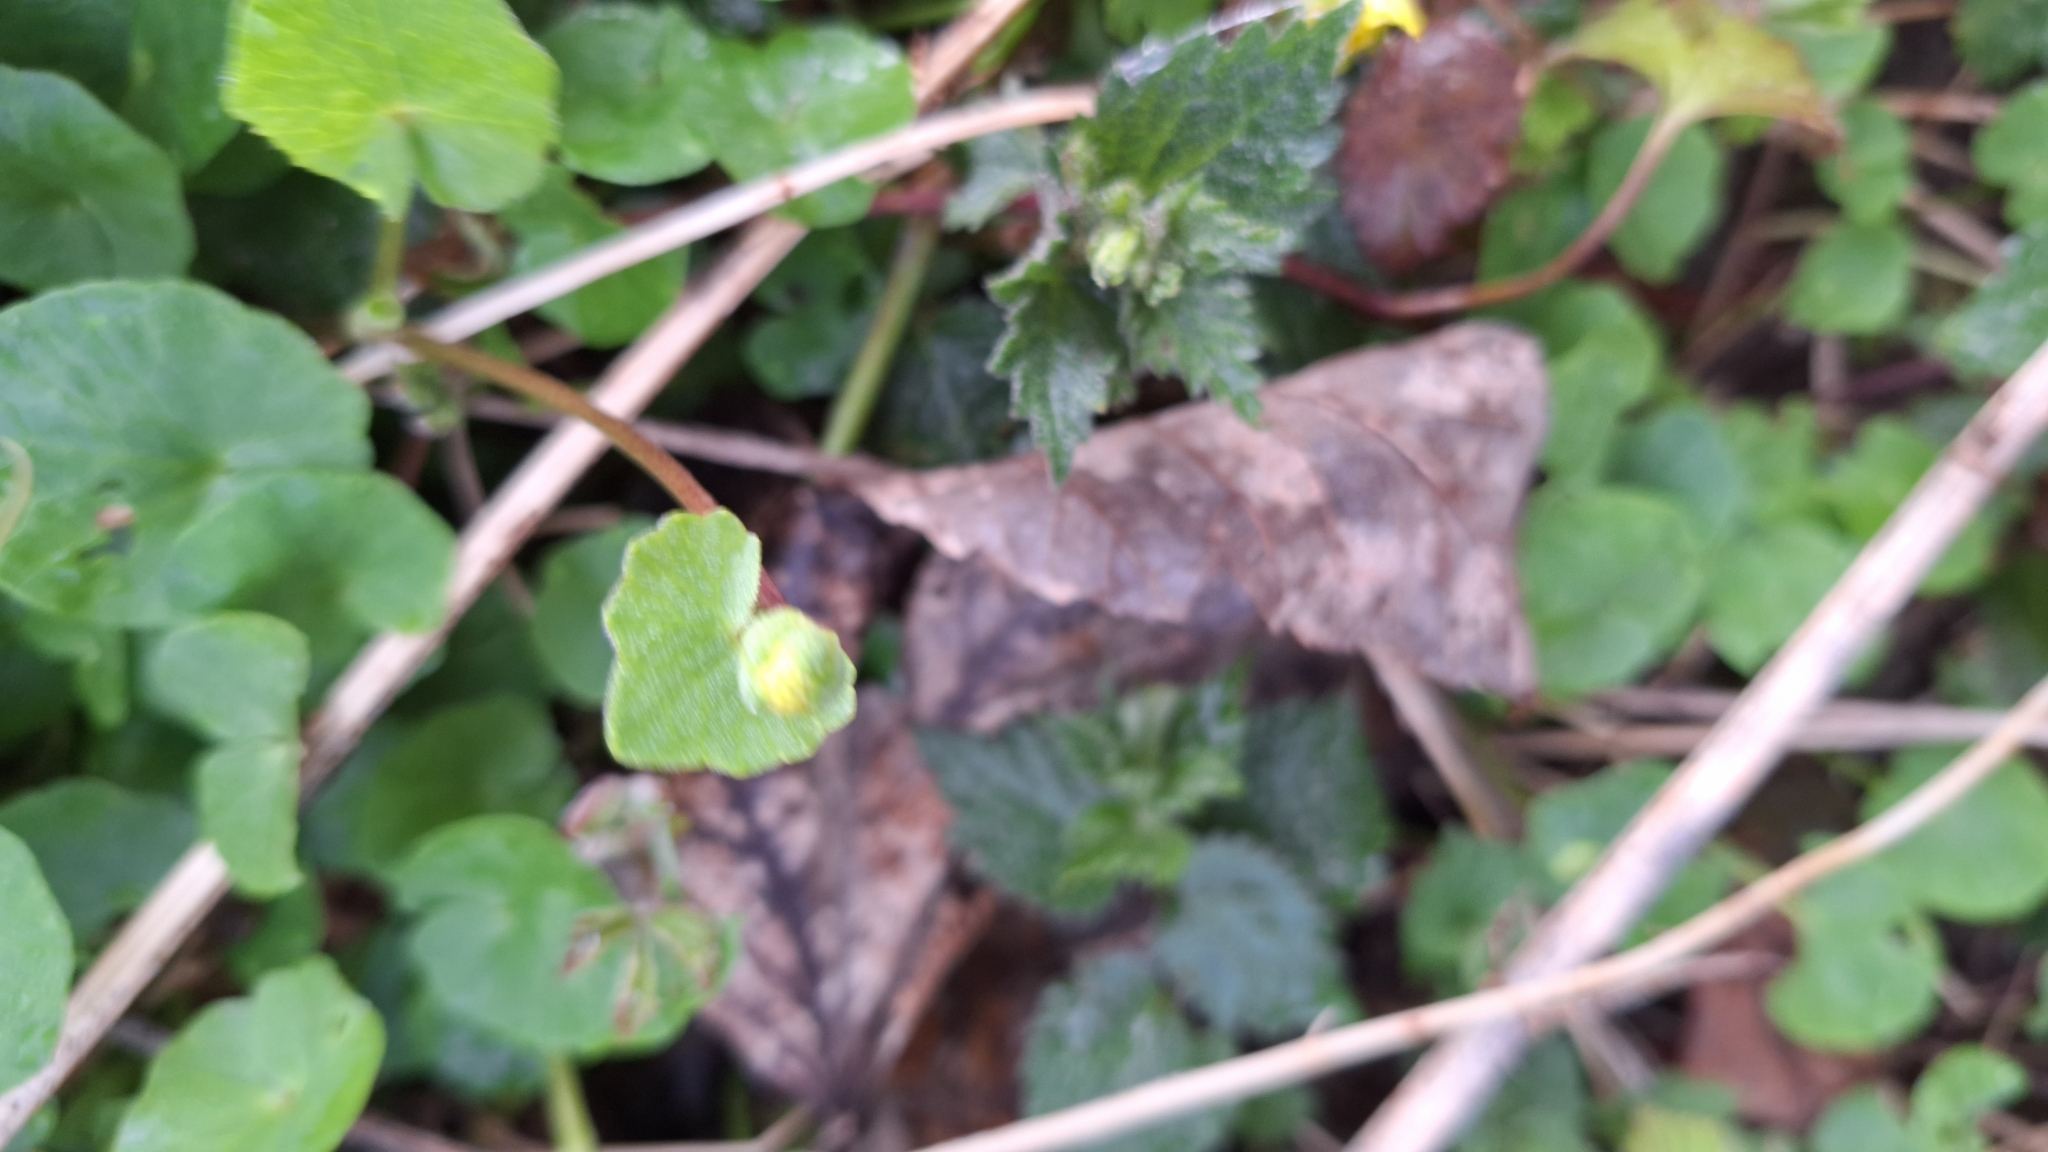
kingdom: Plantae
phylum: Tracheophyta
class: Magnoliopsida
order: Ranunculales
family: Ranunculaceae
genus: Ficaria
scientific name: Ficaria verna
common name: Lesser celandine
